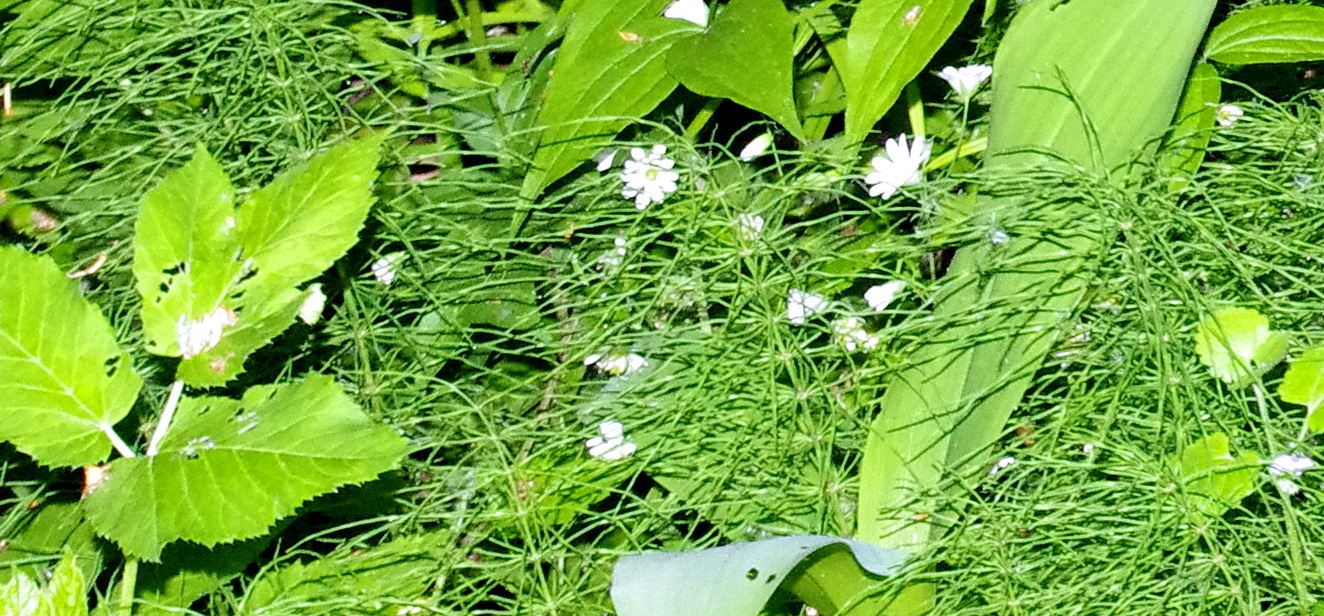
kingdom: Plantae
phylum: Tracheophyta
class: Polypodiopsida
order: Equisetales
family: Equisetaceae
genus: Equisetum
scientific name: Equisetum pratense
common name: Meadow horsetail
